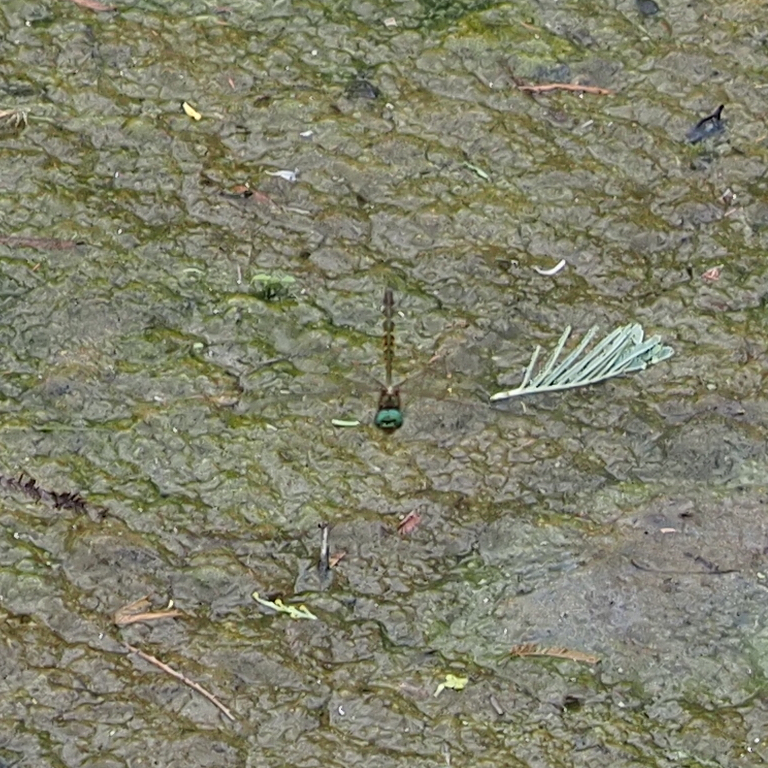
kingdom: Animalia
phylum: Arthropoda
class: Insecta
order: Odonata
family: Corduliidae
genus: Hemicordulia
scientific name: Hemicordulia australiae
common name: Sentry dragonfly
